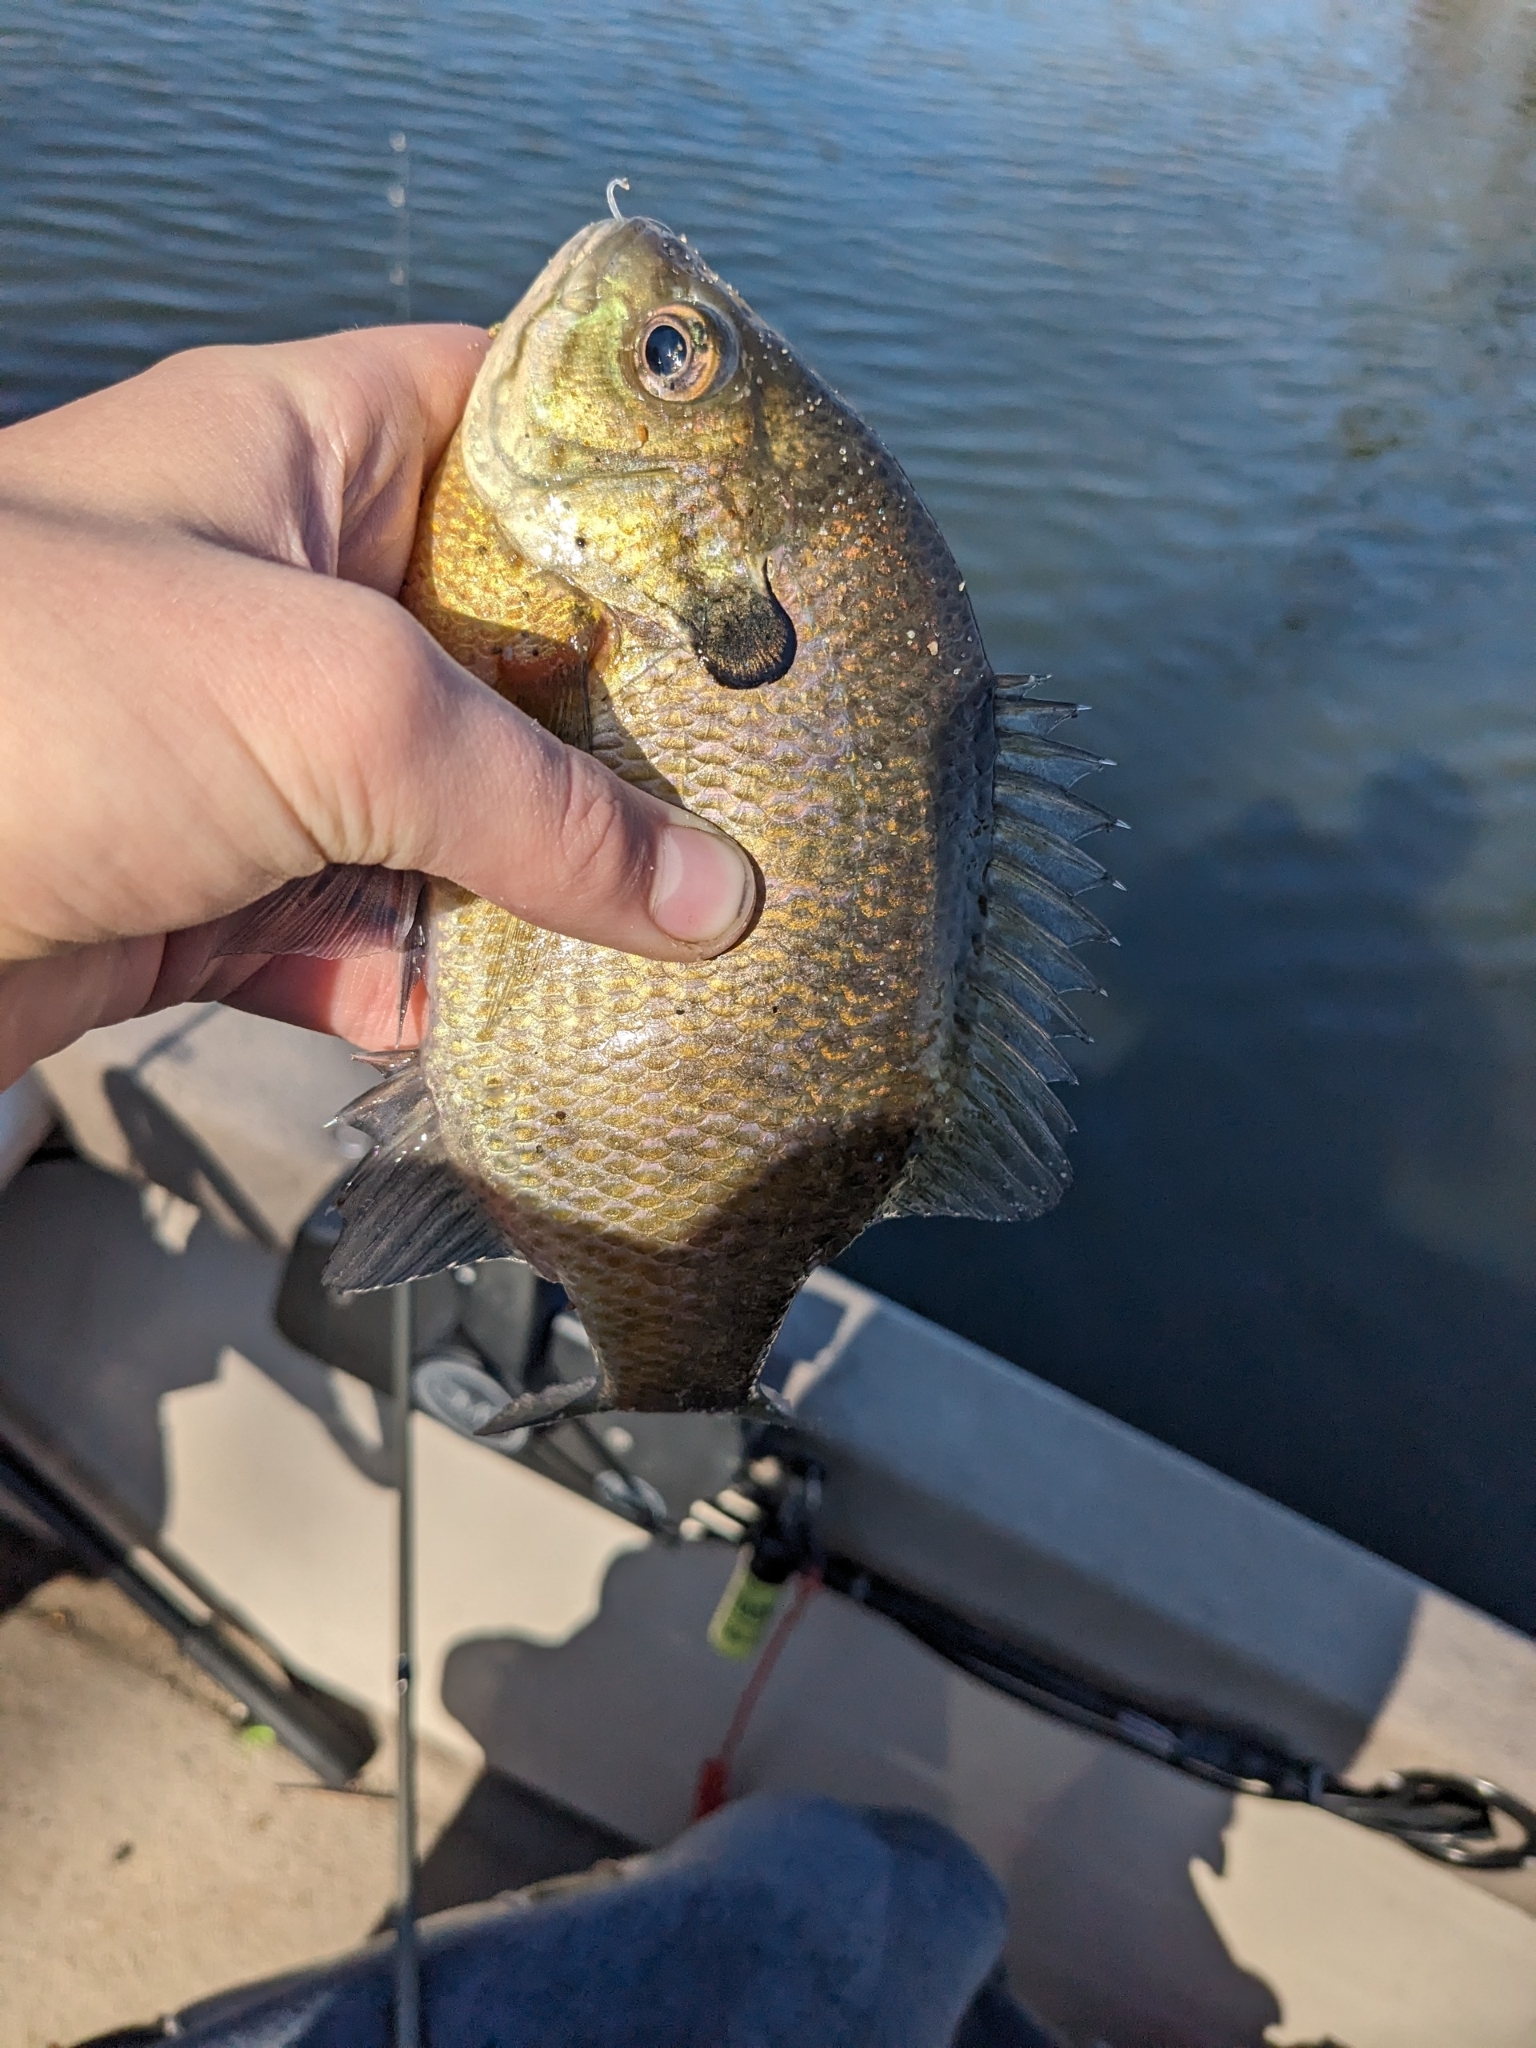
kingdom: Animalia
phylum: Chordata
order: Perciformes
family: Centrarchidae
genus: Lepomis
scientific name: Lepomis macrochirus
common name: Bluegill
